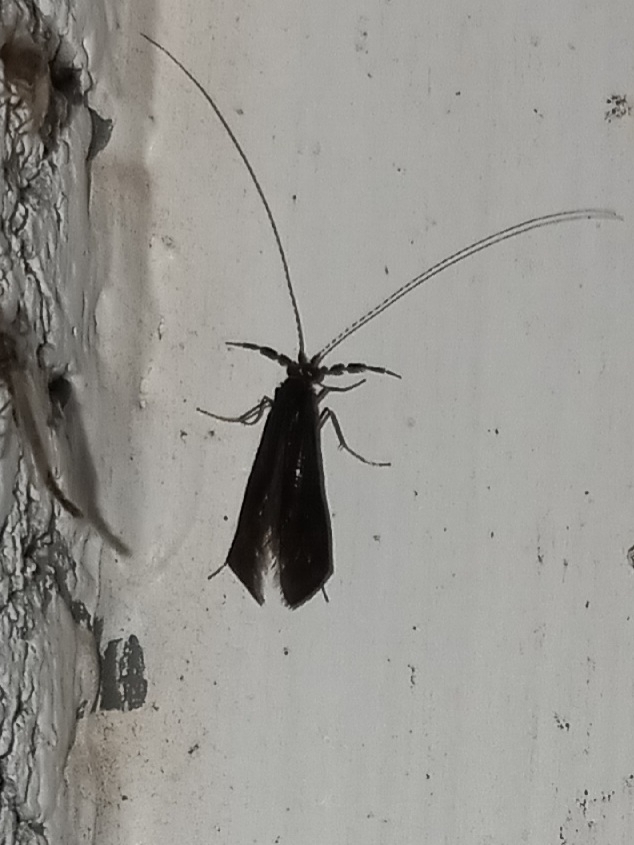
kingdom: Animalia
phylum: Arthropoda
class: Insecta
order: Trichoptera
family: Leptoceridae
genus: Mystacides
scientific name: Mystacides sepulchralis
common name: Black dancer caddisfly
